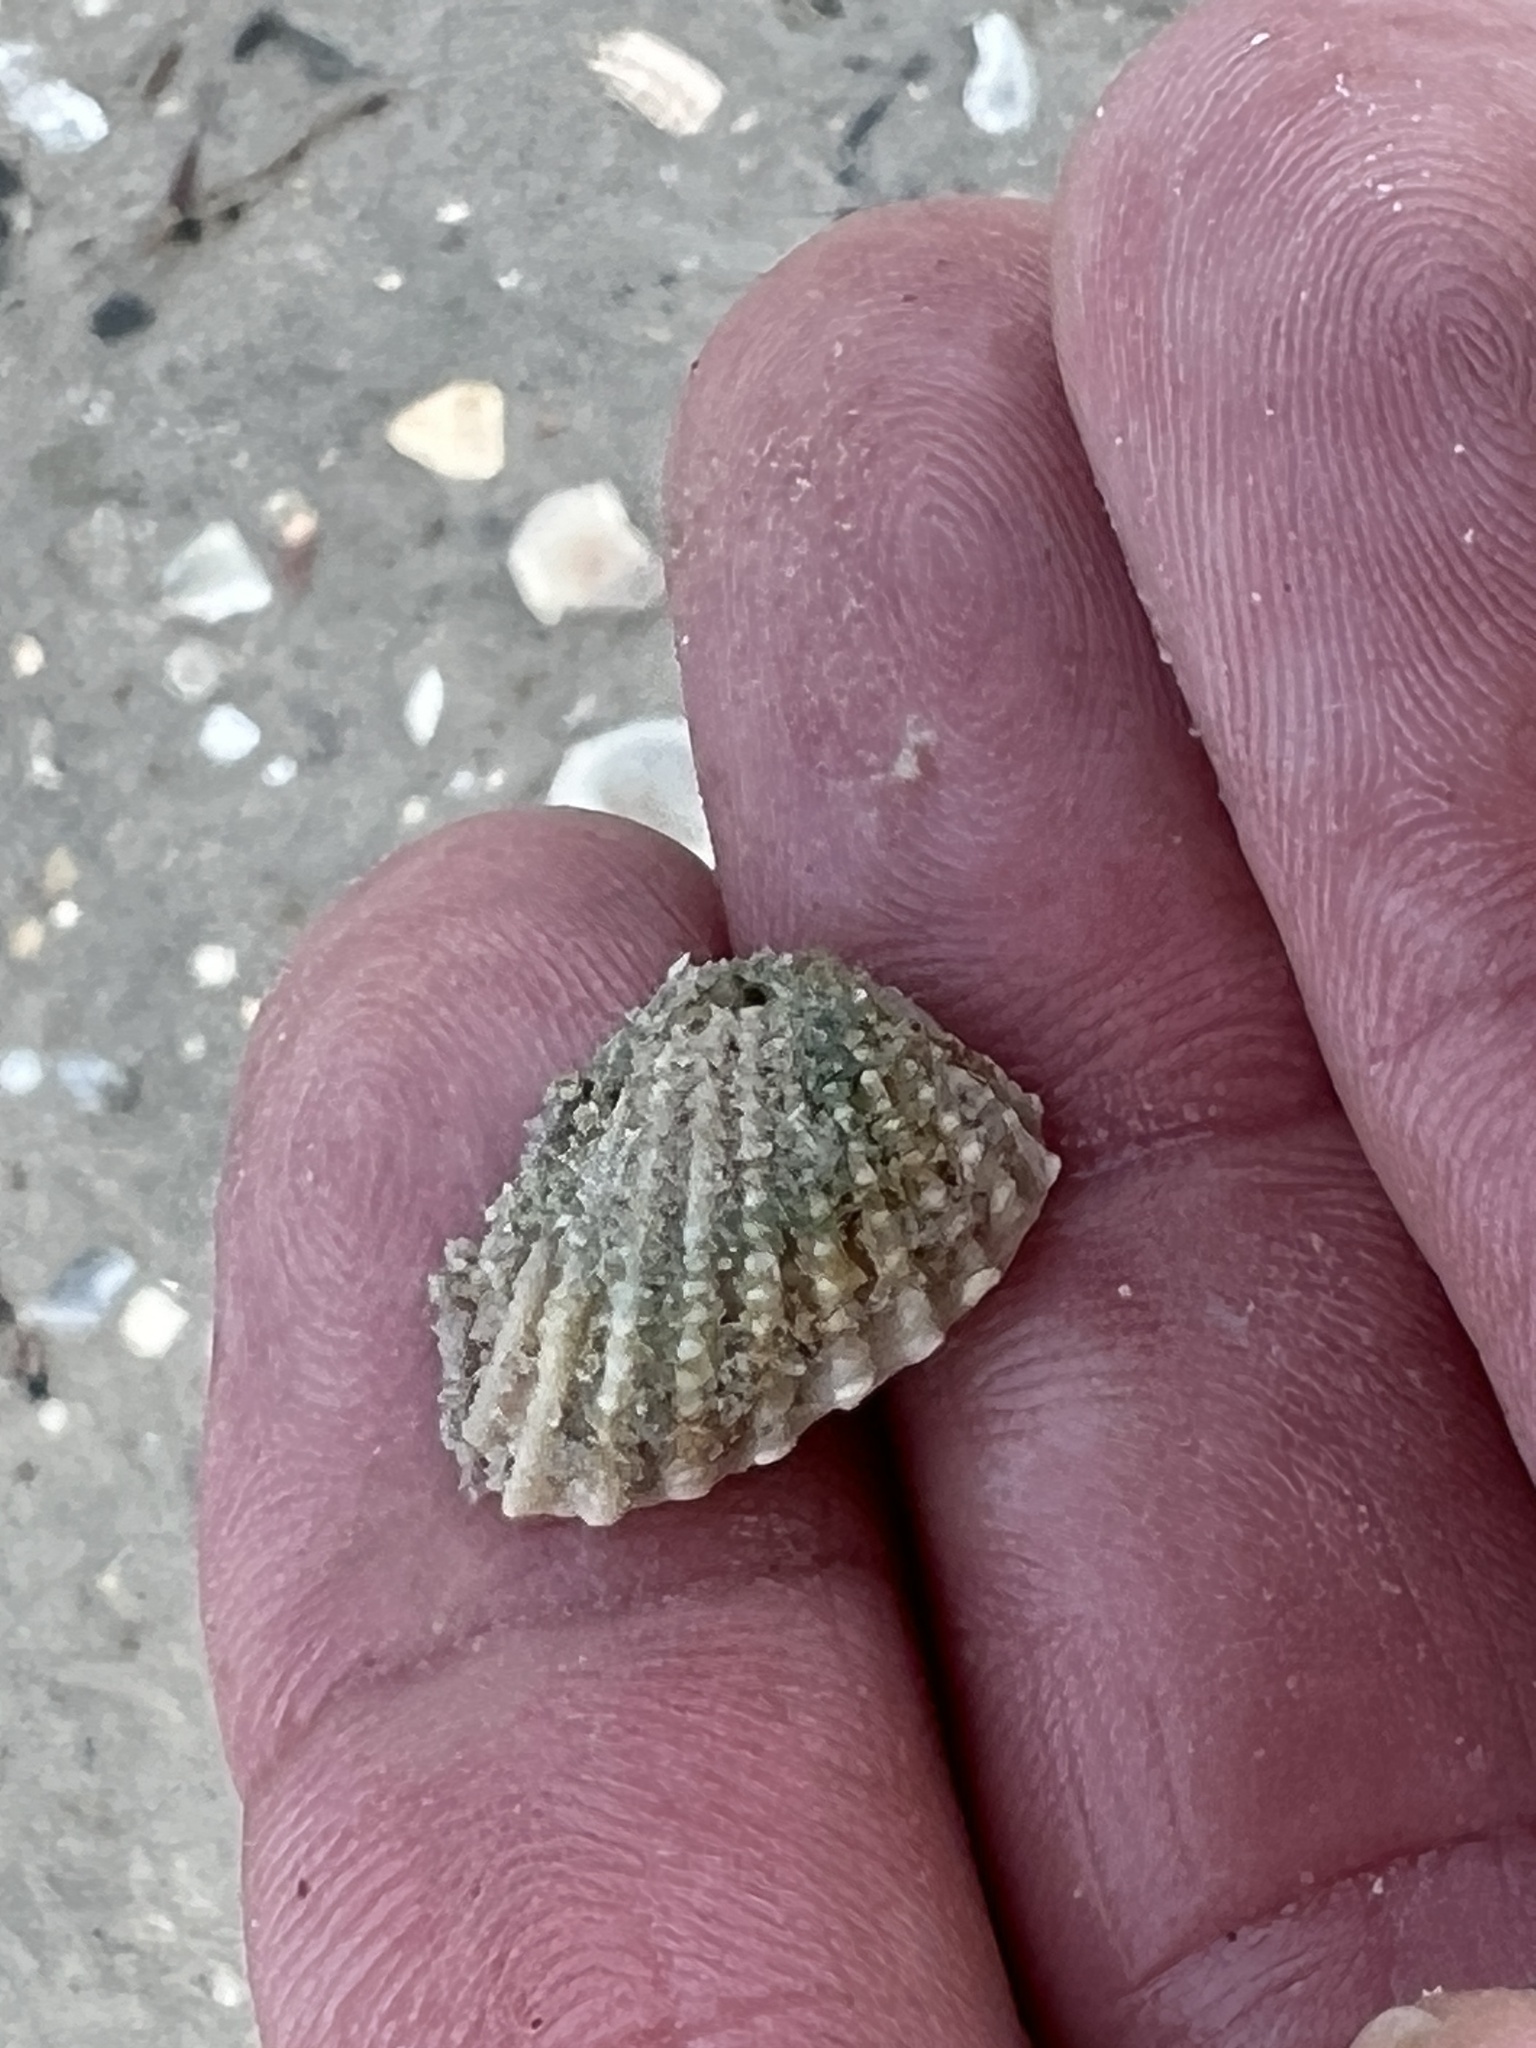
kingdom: Animalia
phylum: Mollusca
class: Bivalvia
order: Carditida
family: Carditidae
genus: Cardites
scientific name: Cardites floridanus
